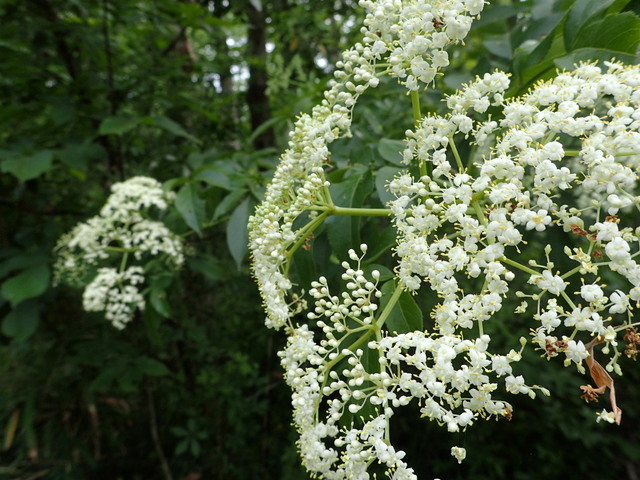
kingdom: Plantae
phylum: Tracheophyta
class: Magnoliopsida
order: Dipsacales
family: Viburnaceae
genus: Sambucus
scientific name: Sambucus canadensis
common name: American elder
